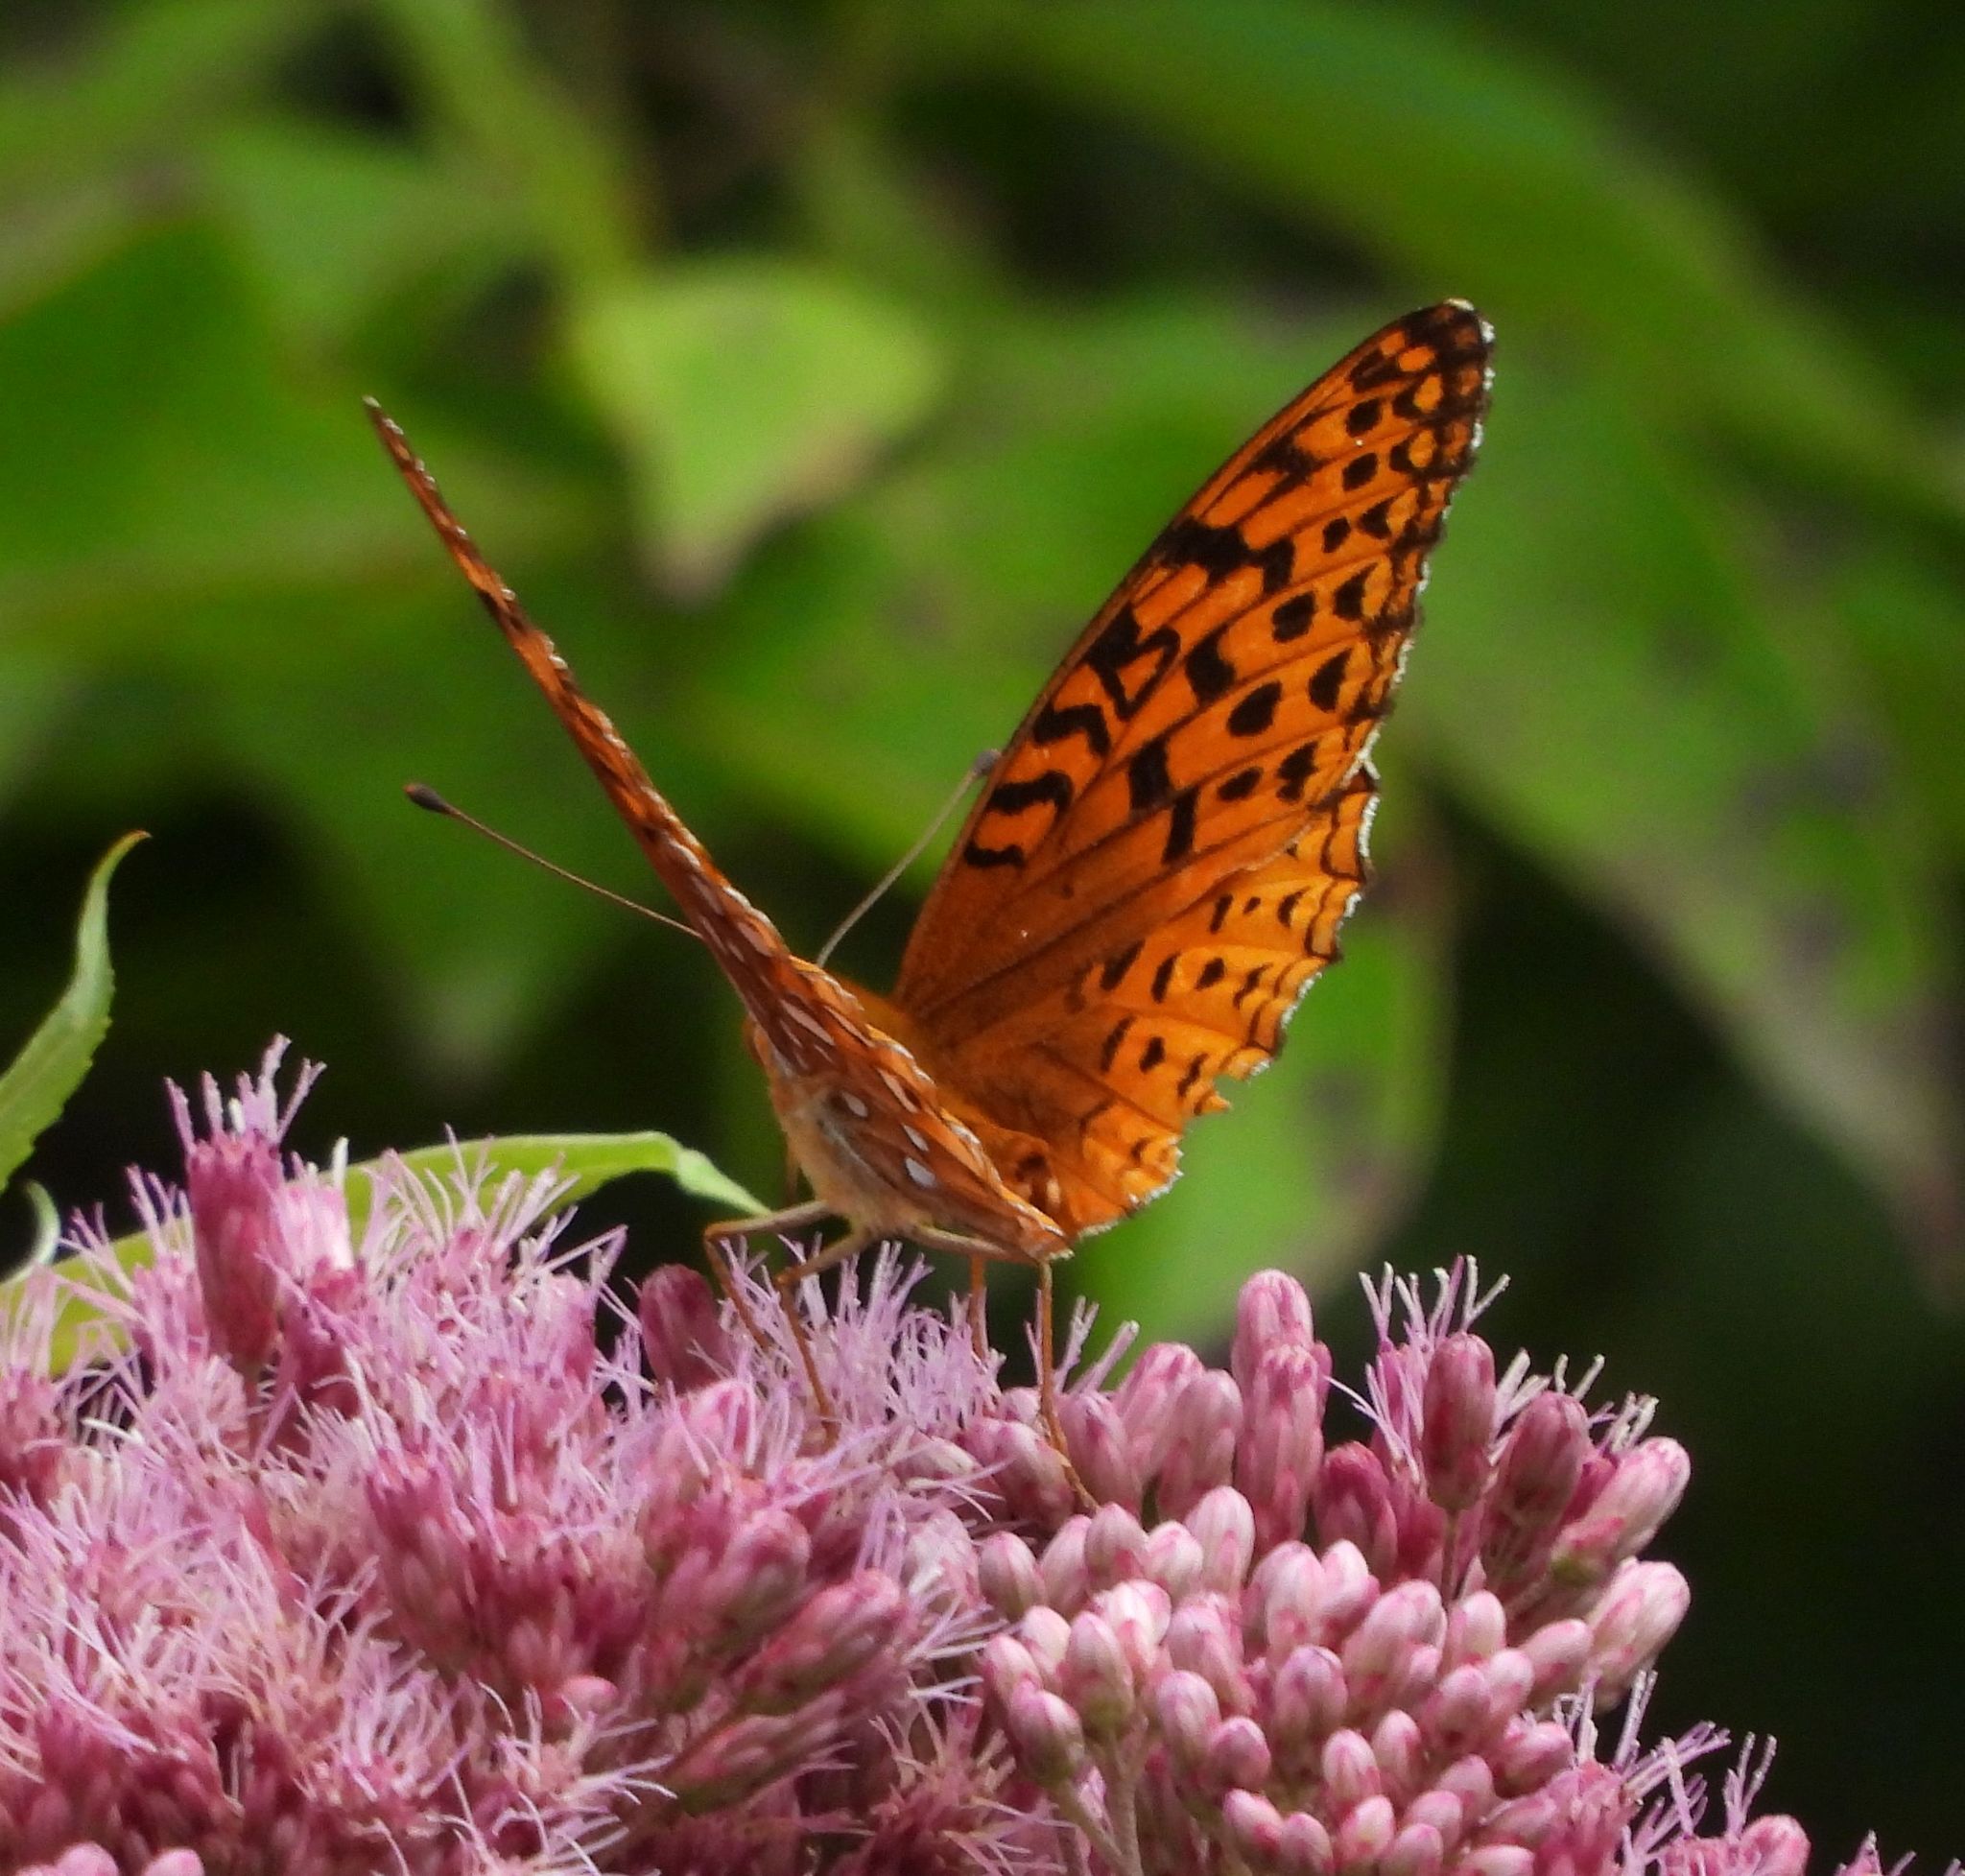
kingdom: Animalia
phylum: Arthropoda
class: Insecta
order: Lepidoptera
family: Nymphalidae
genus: Speyeria
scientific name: Speyeria aphrodite
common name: Aphrodite friitllary
